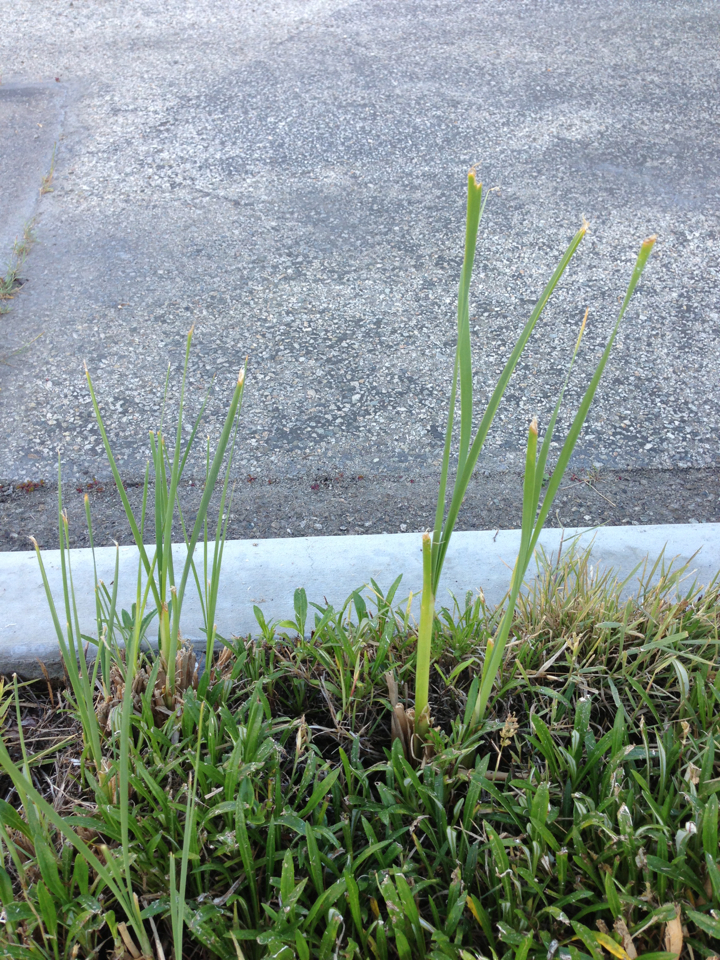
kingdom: Plantae
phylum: Tracheophyta
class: Liliopsida
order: Poales
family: Typhaceae
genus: Typha
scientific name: Typha
